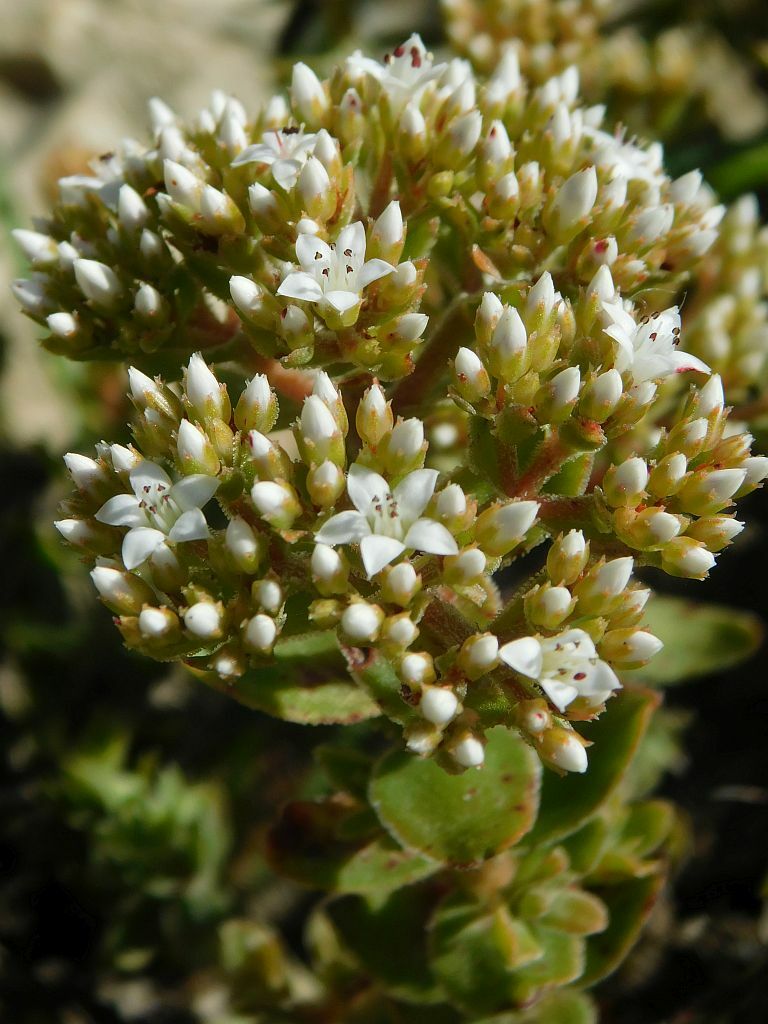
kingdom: Plantae
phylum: Tracheophyta
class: Magnoliopsida
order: Saxifragales
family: Crassulaceae
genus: Crassula
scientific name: Crassula undulata
